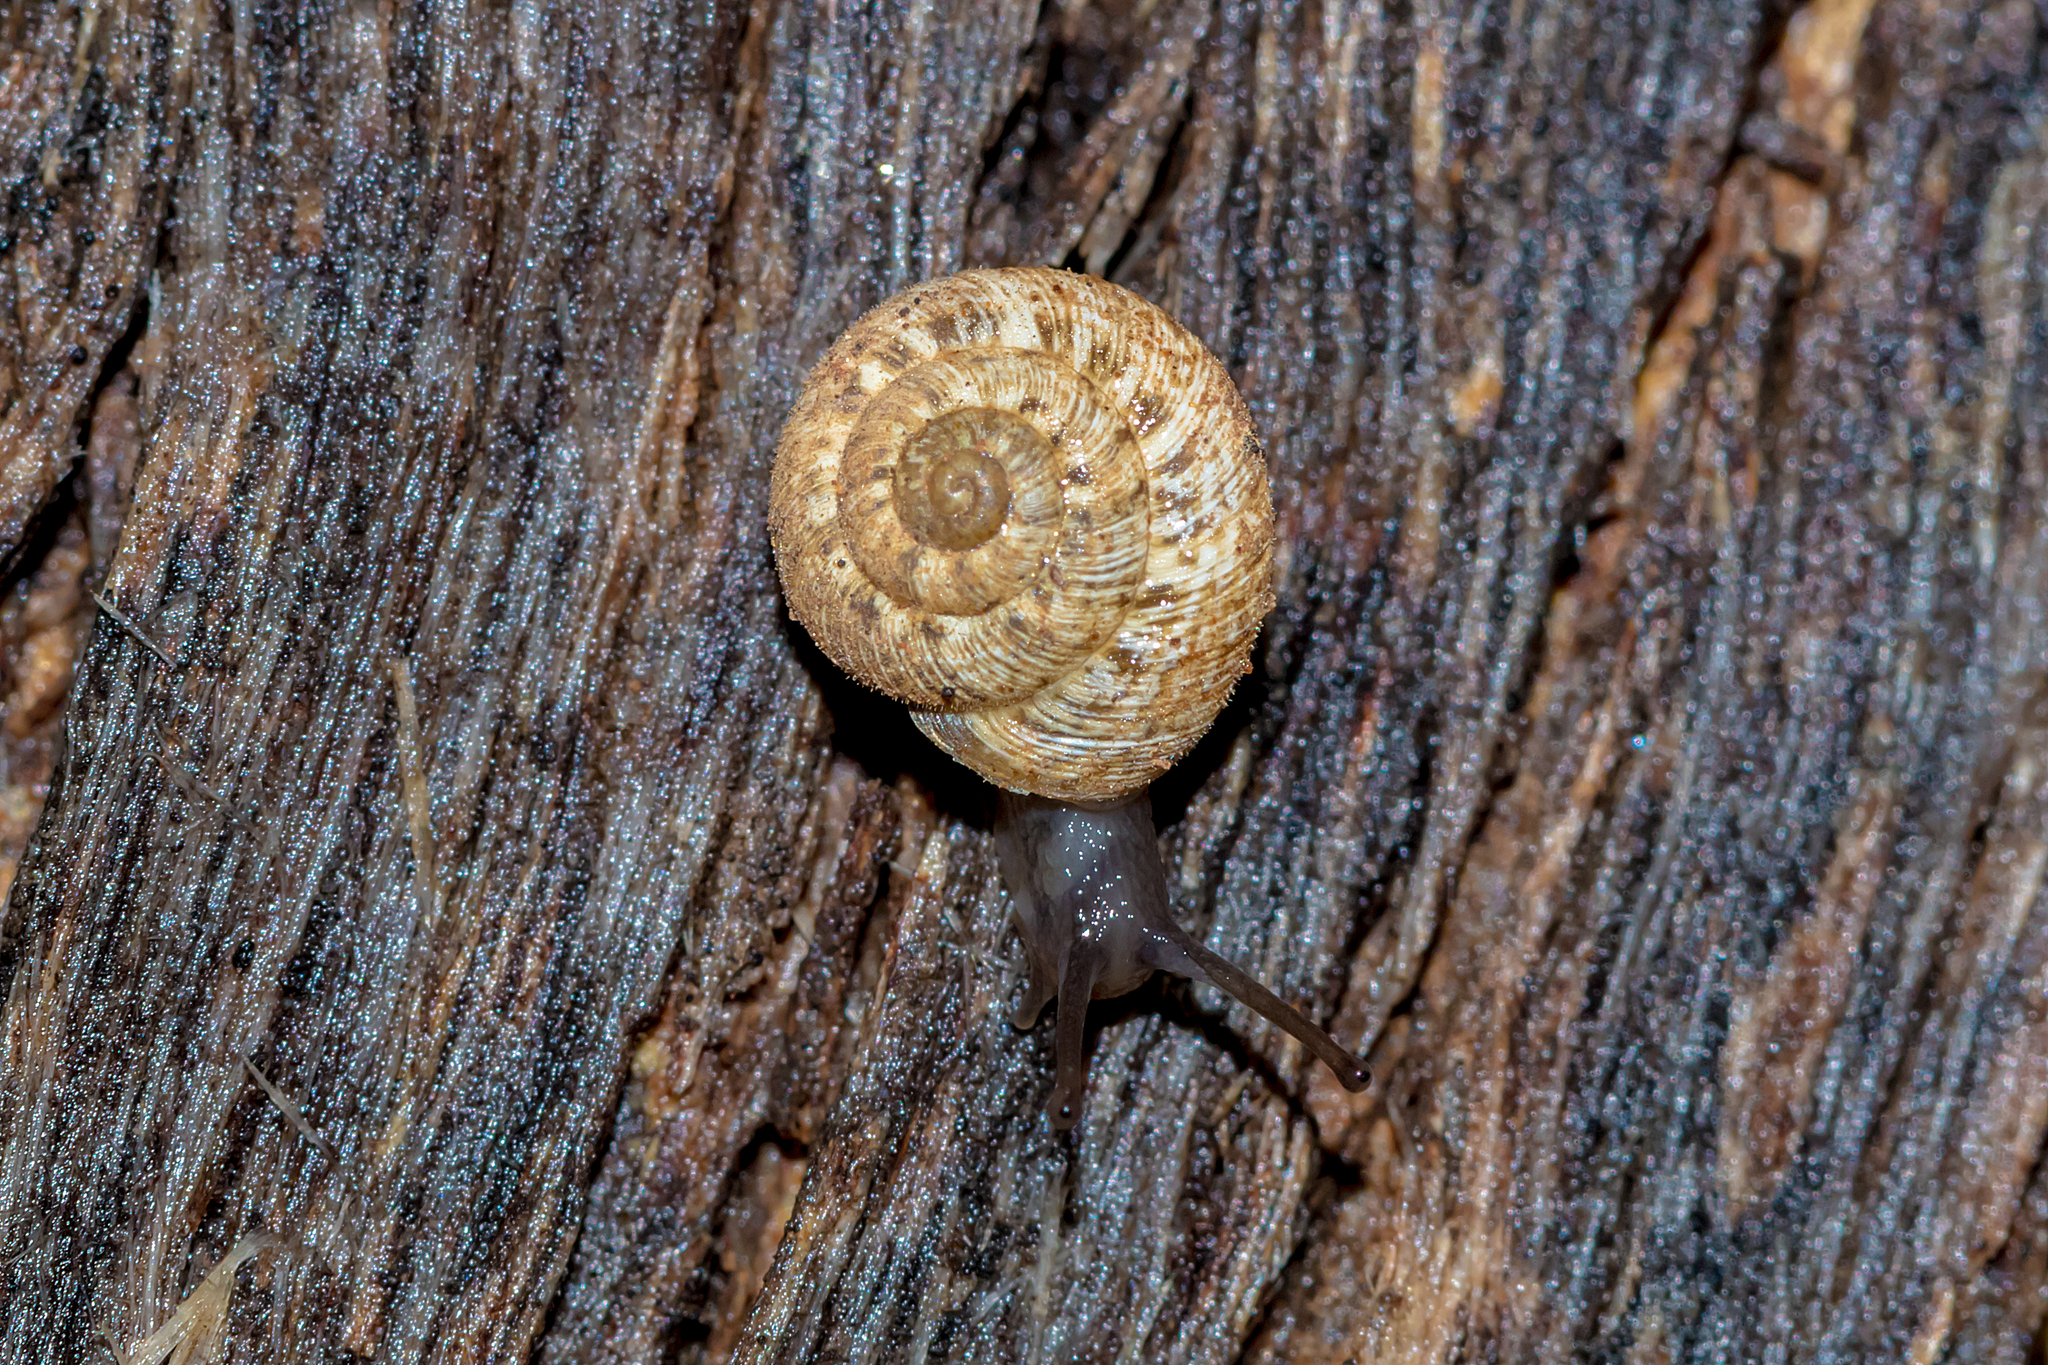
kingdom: Animalia
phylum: Mollusca
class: Gastropoda
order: Stylommatophora
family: Geomitridae
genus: Microxeromagna
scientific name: Microxeromagna lowei
